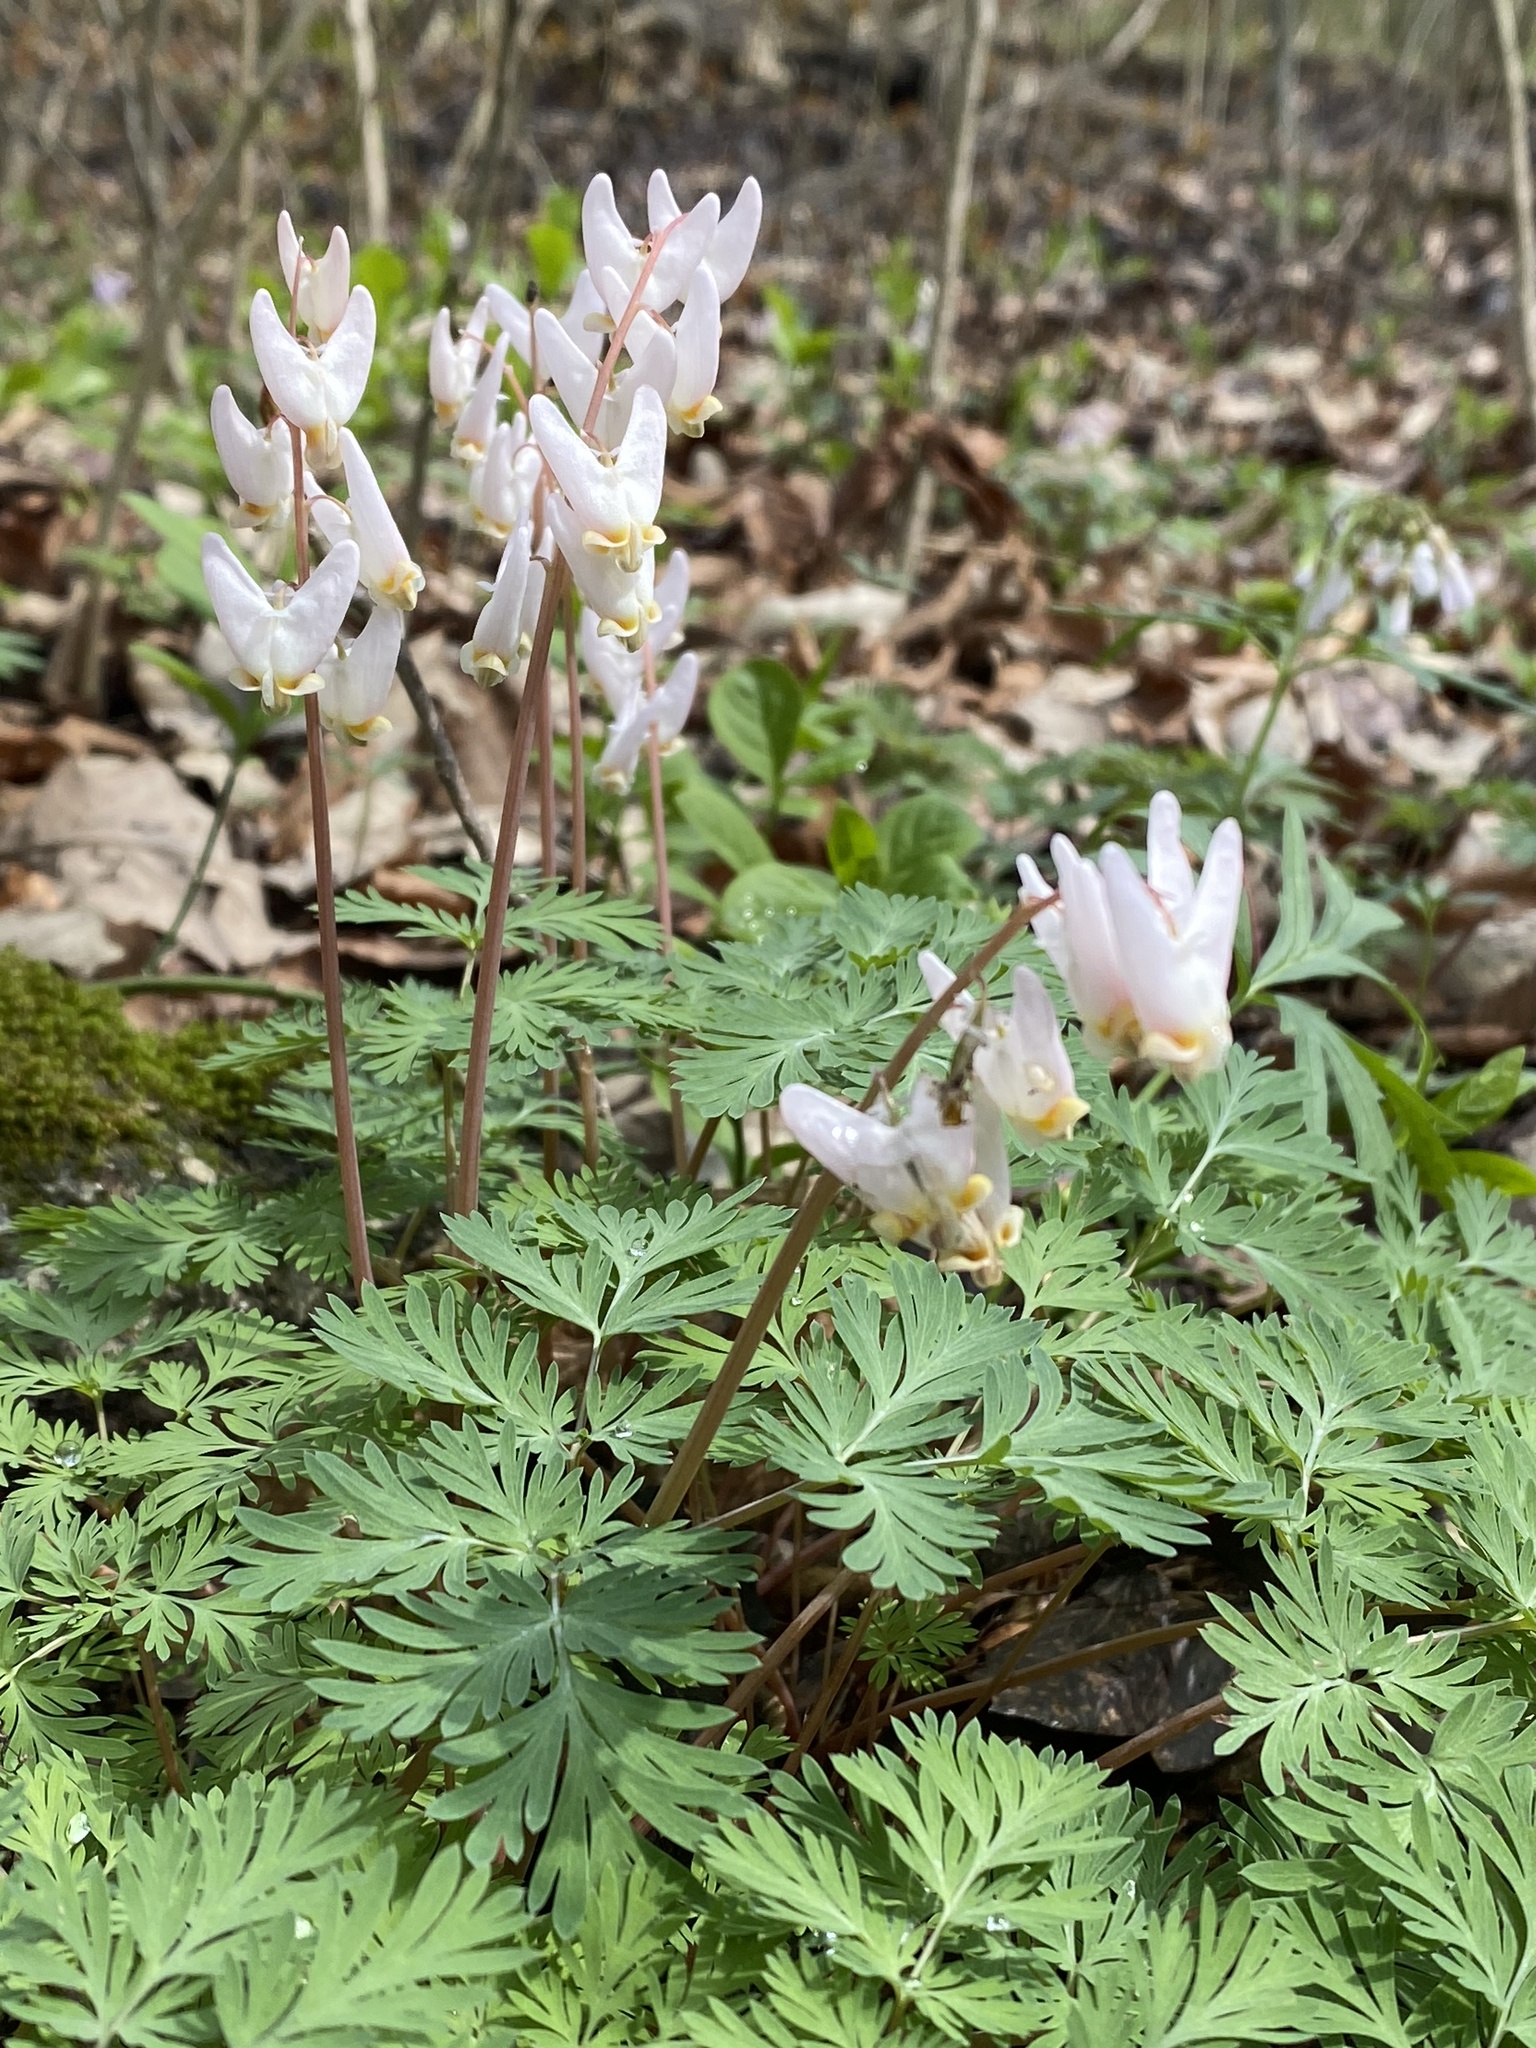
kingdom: Plantae
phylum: Tracheophyta
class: Magnoliopsida
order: Ranunculales
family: Papaveraceae
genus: Dicentra
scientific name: Dicentra cucullaria
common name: Dutchman's breeches
